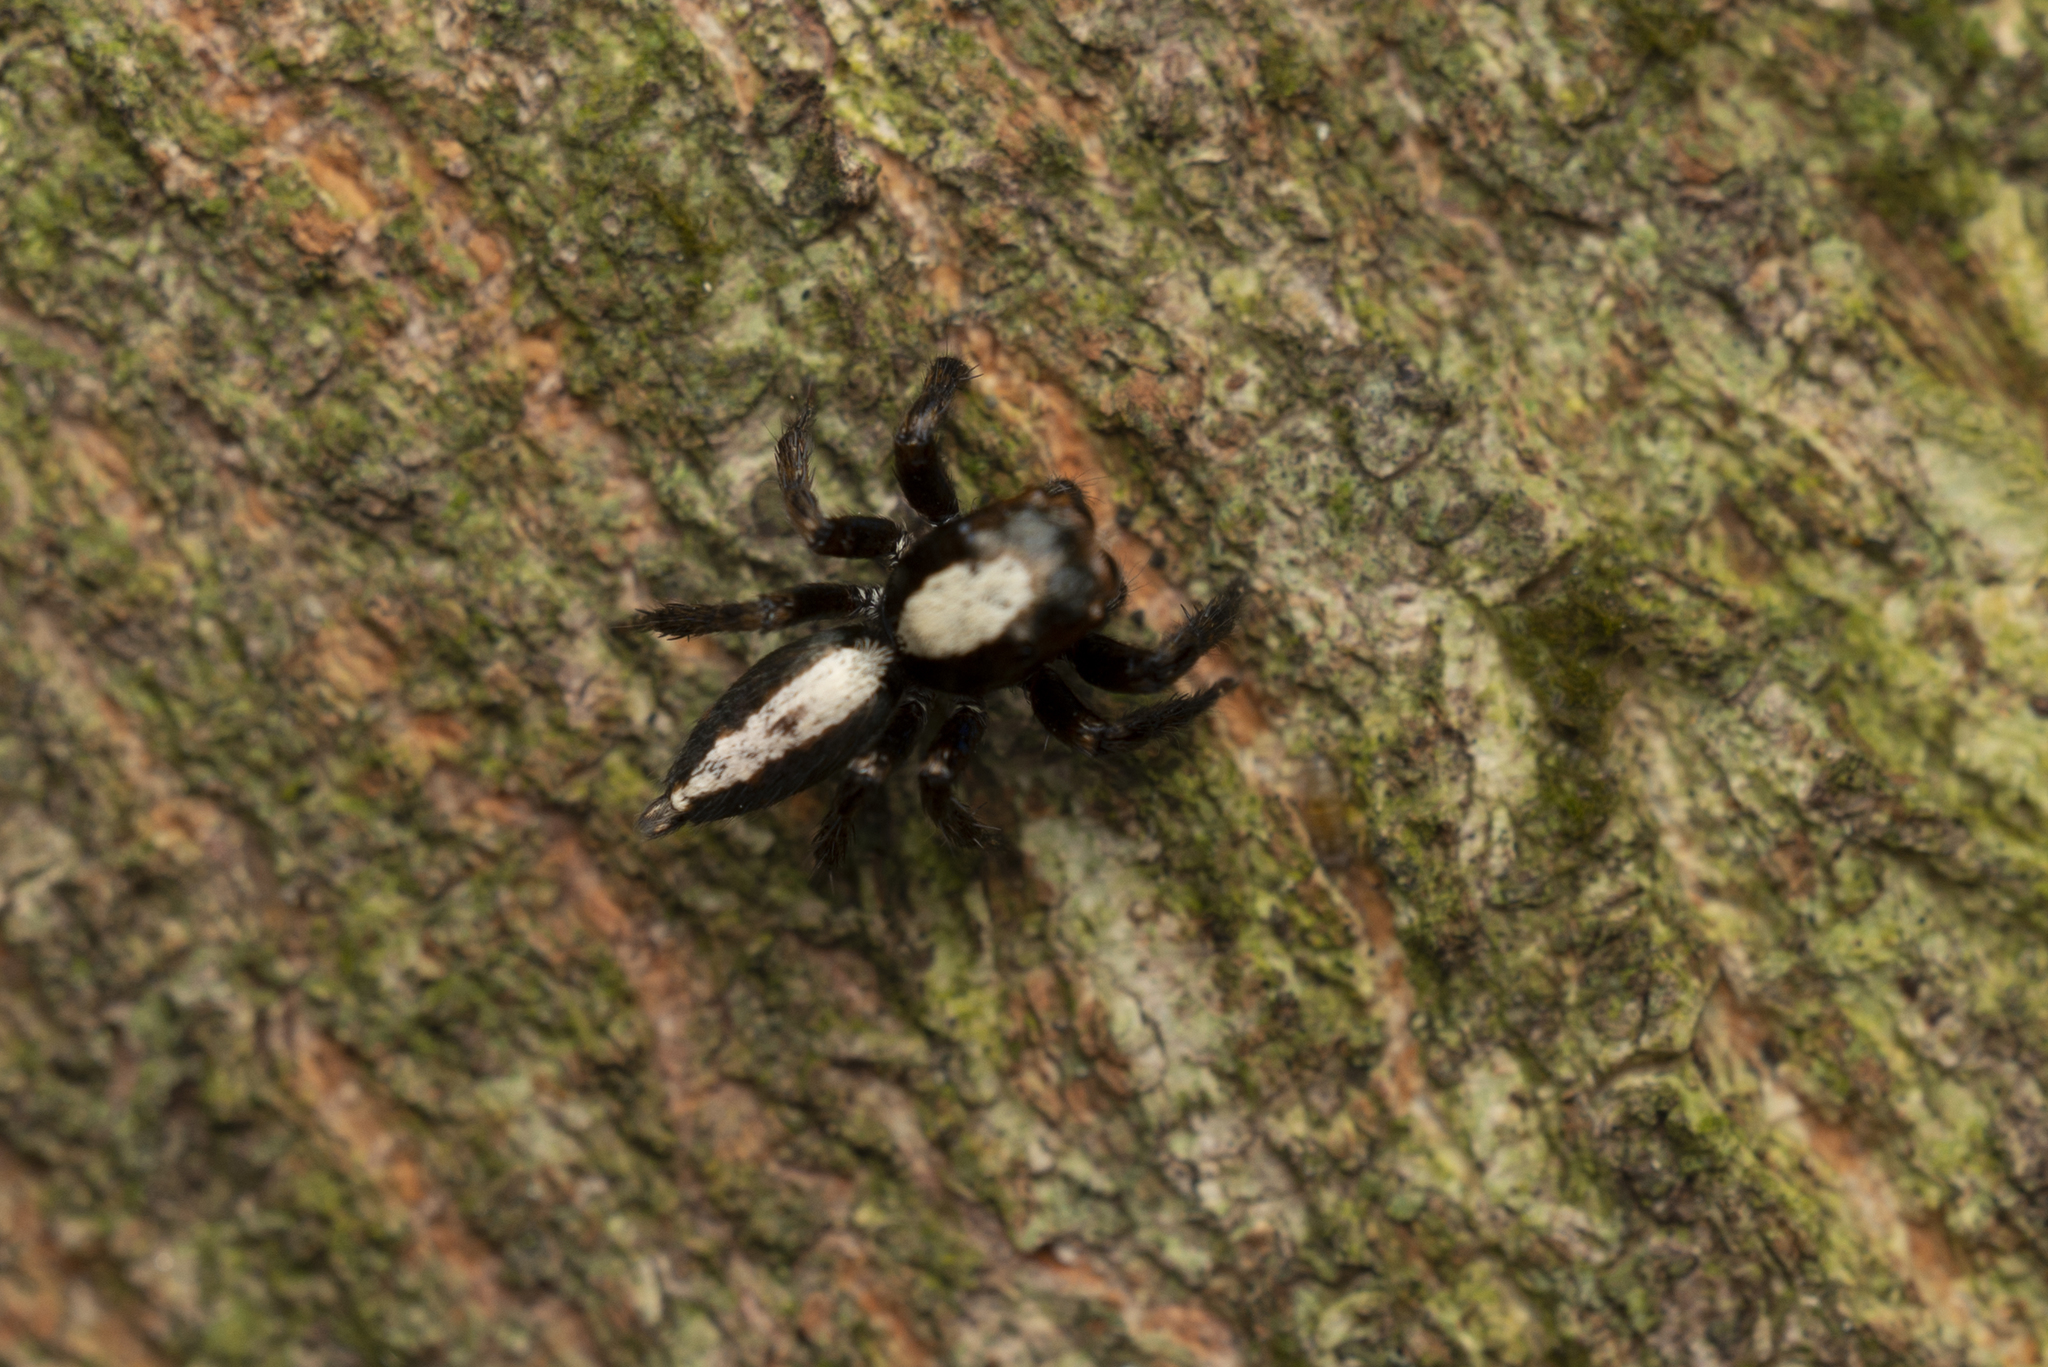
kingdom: Animalia
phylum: Arthropoda
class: Arachnida
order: Araneae
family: Salticidae
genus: Thyene
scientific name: Thyene orientalis
